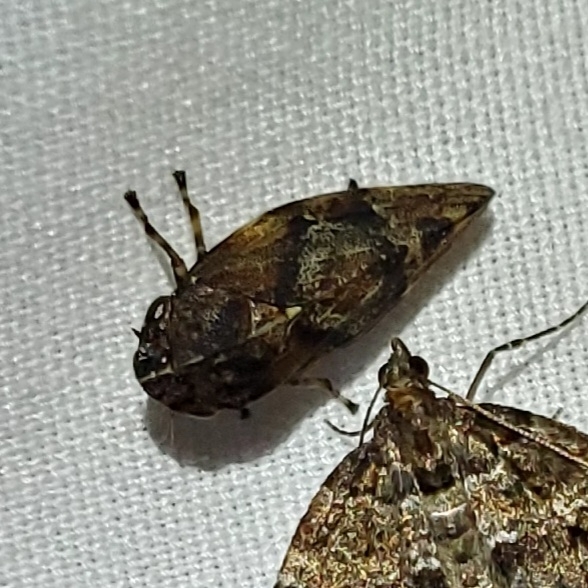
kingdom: Animalia
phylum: Arthropoda
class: Insecta
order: Hemiptera
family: Aphrophoridae
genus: Aphrophora
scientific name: Aphrophora saratogensis
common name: Saratoga spittlebug
